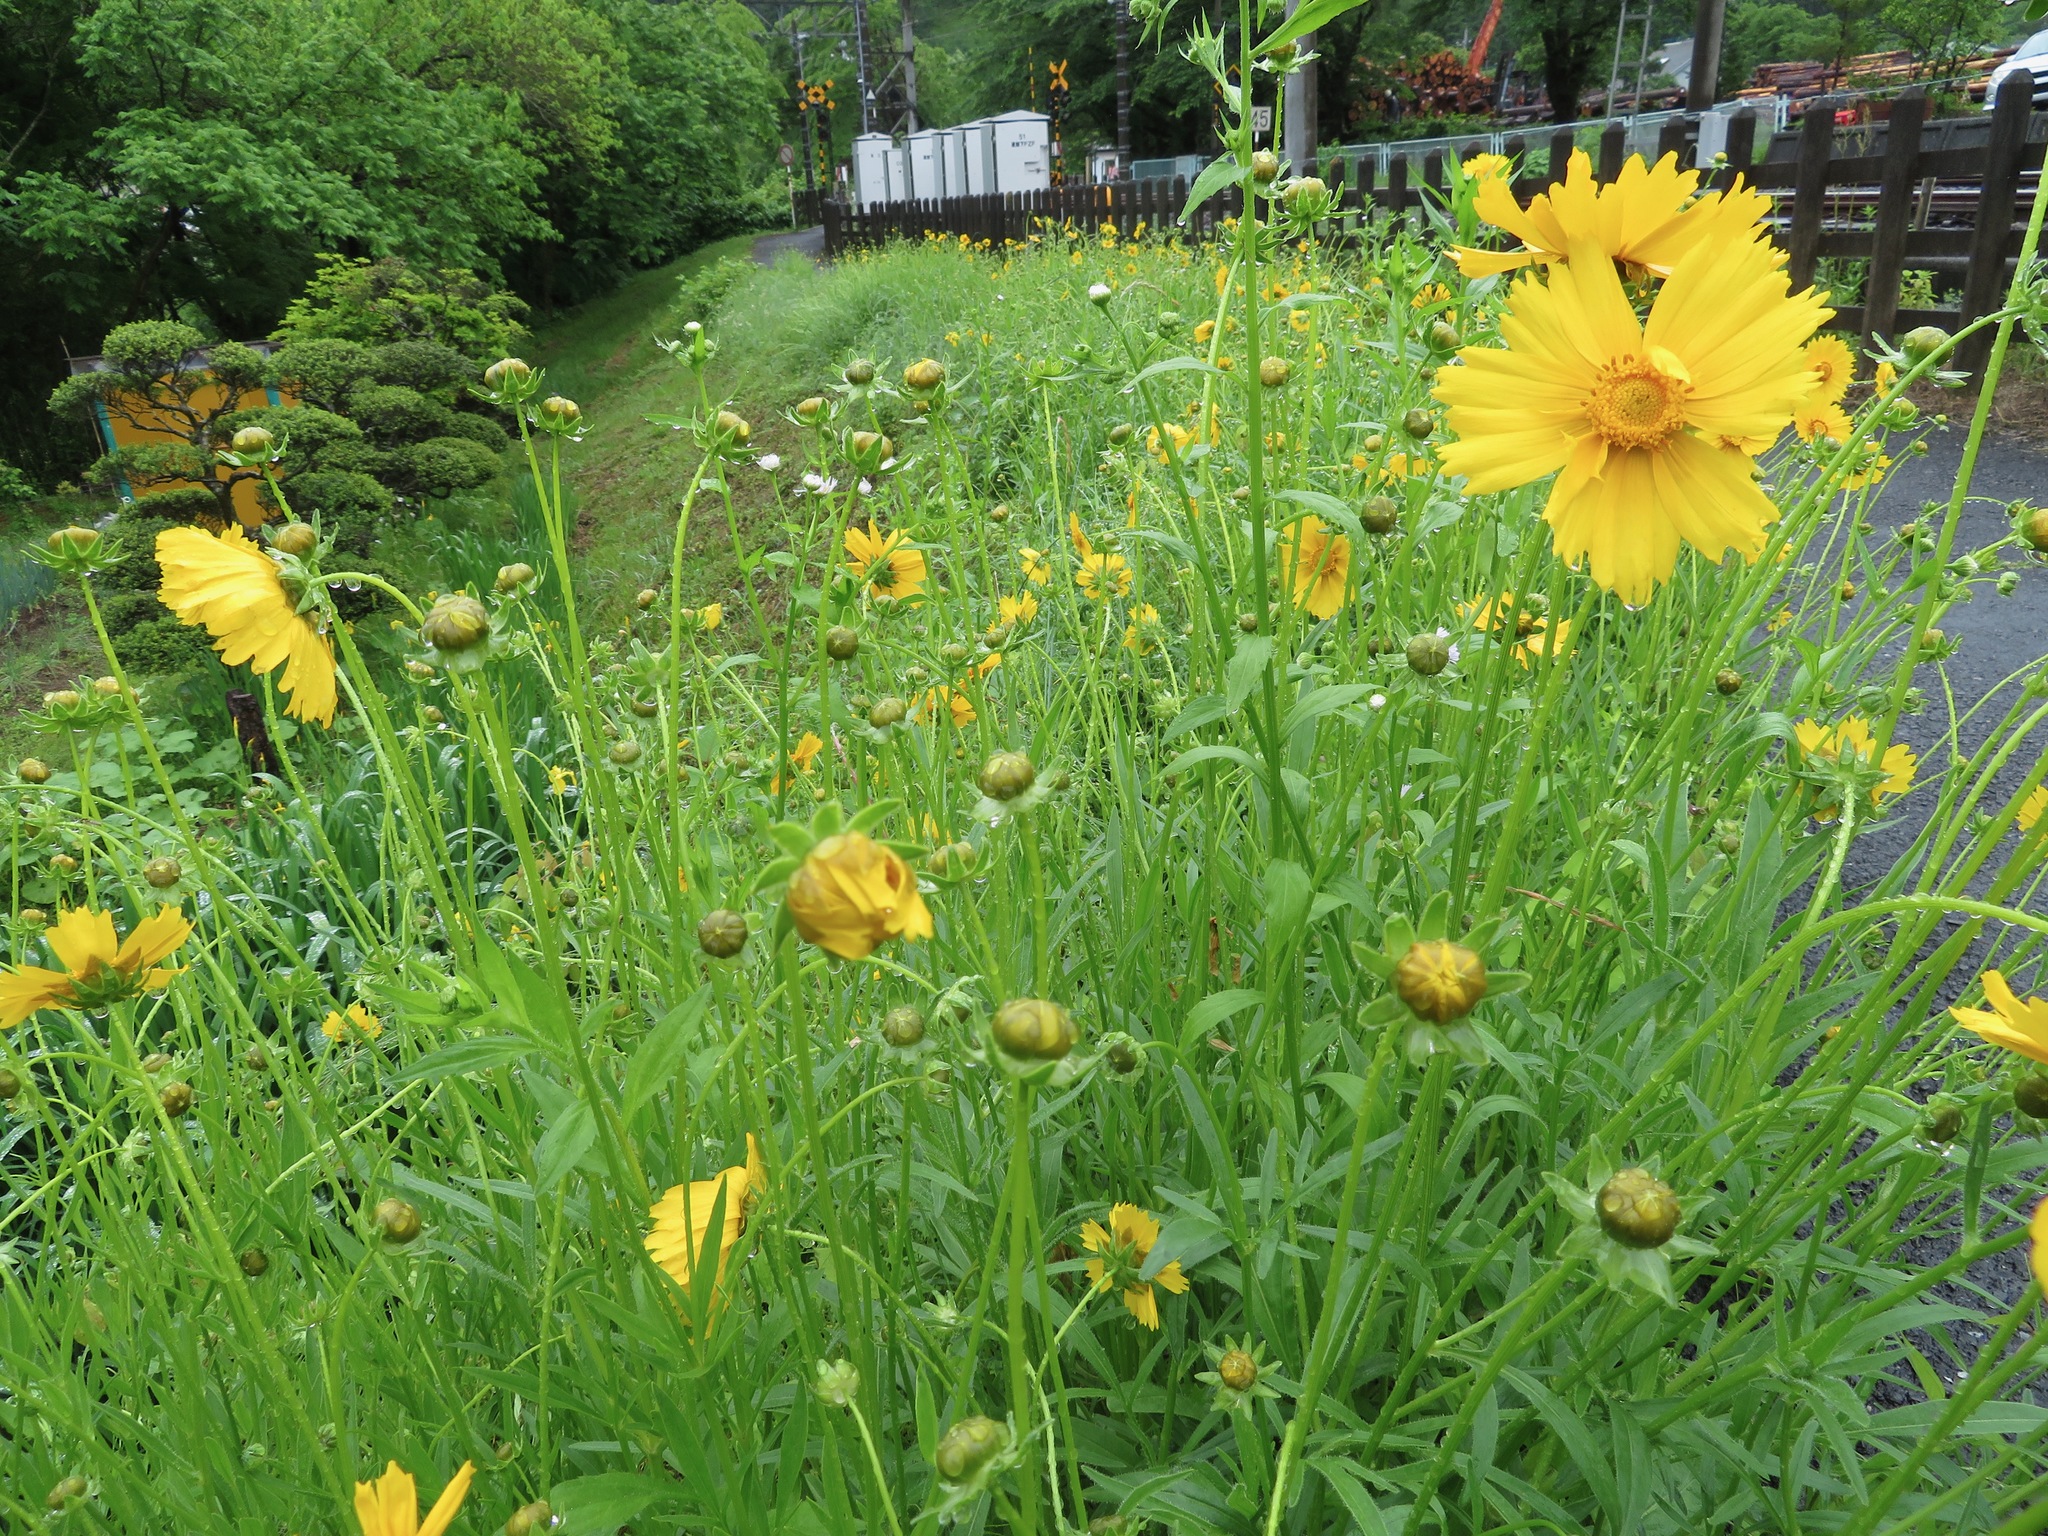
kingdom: Plantae
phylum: Tracheophyta
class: Magnoliopsida
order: Asterales
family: Asteraceae
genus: Coreopsis
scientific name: Coreopsis lanceolata
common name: Garden coreopsis
